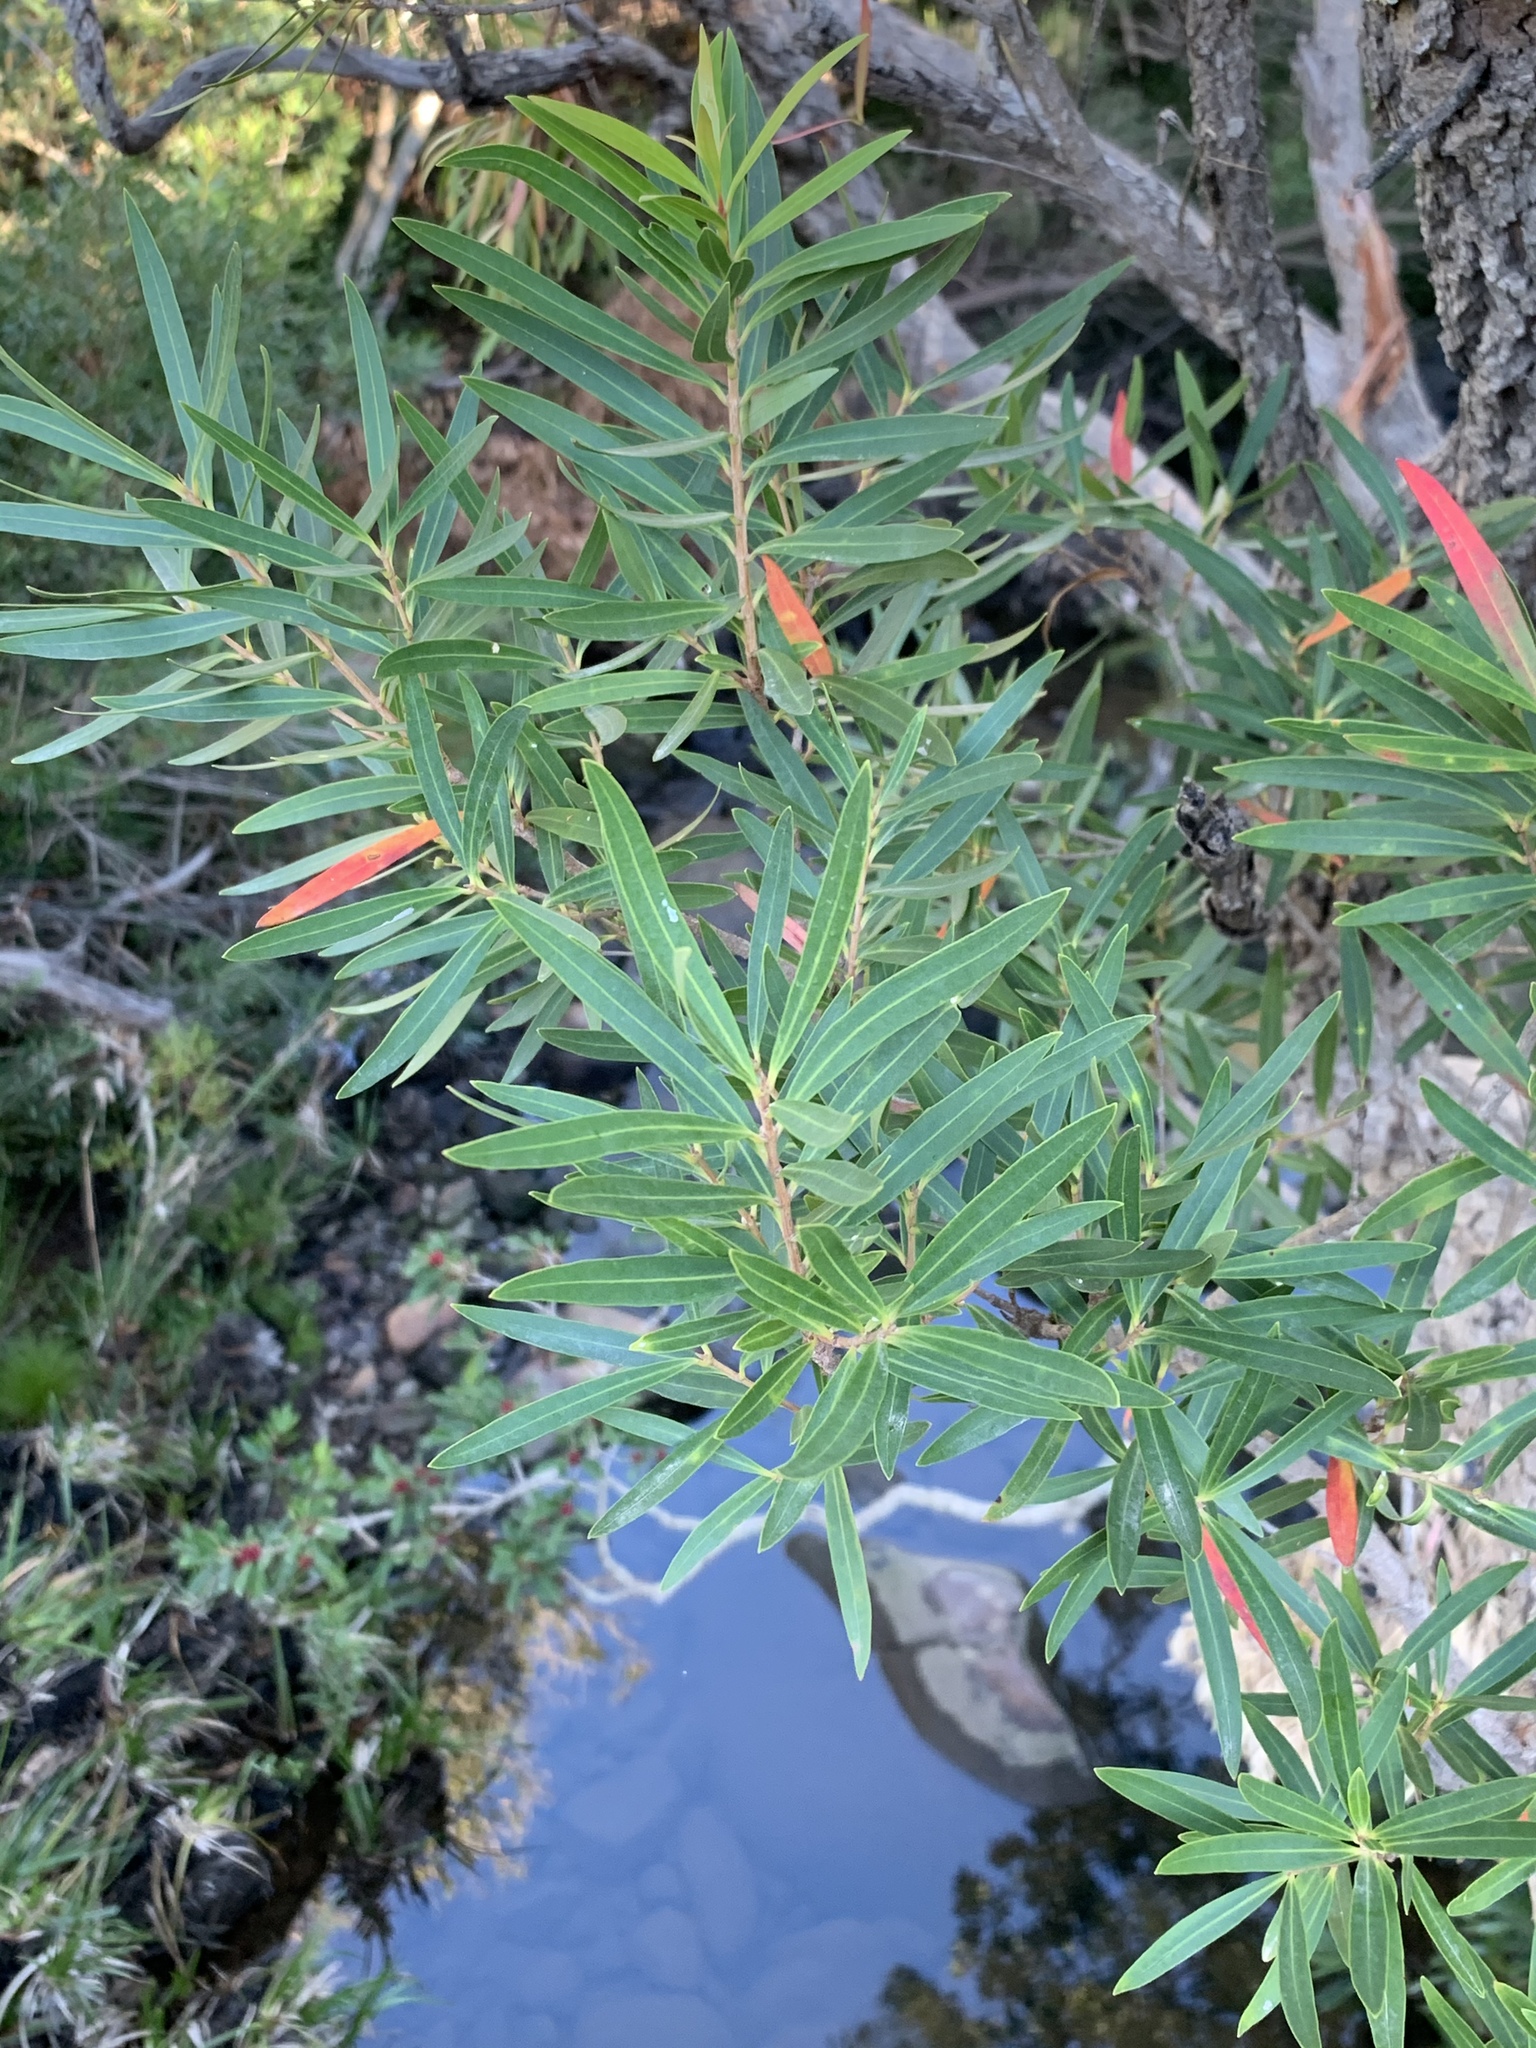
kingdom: Plantae
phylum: Tracheophyta
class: Magnoliopsida
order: Myrtales
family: Myrtaceae
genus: Callistemon
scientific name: Callistemon lanceolatus
